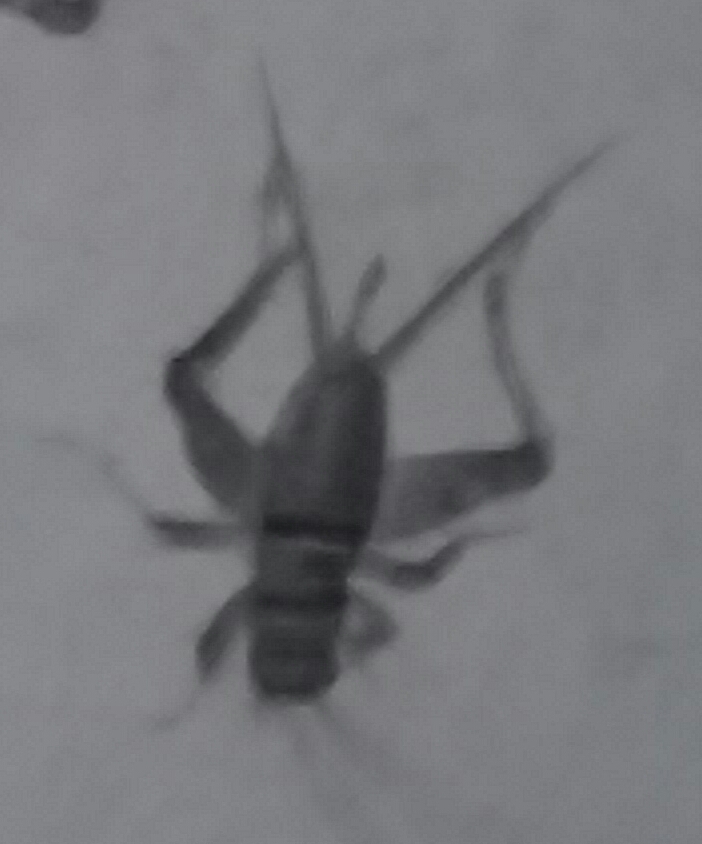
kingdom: Animalia
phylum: Arthropoda
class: Insecta
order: Orthoptera
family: Gryllidae
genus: Gryllodes
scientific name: Gryllodes sigillatus
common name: Tropical house cricket
